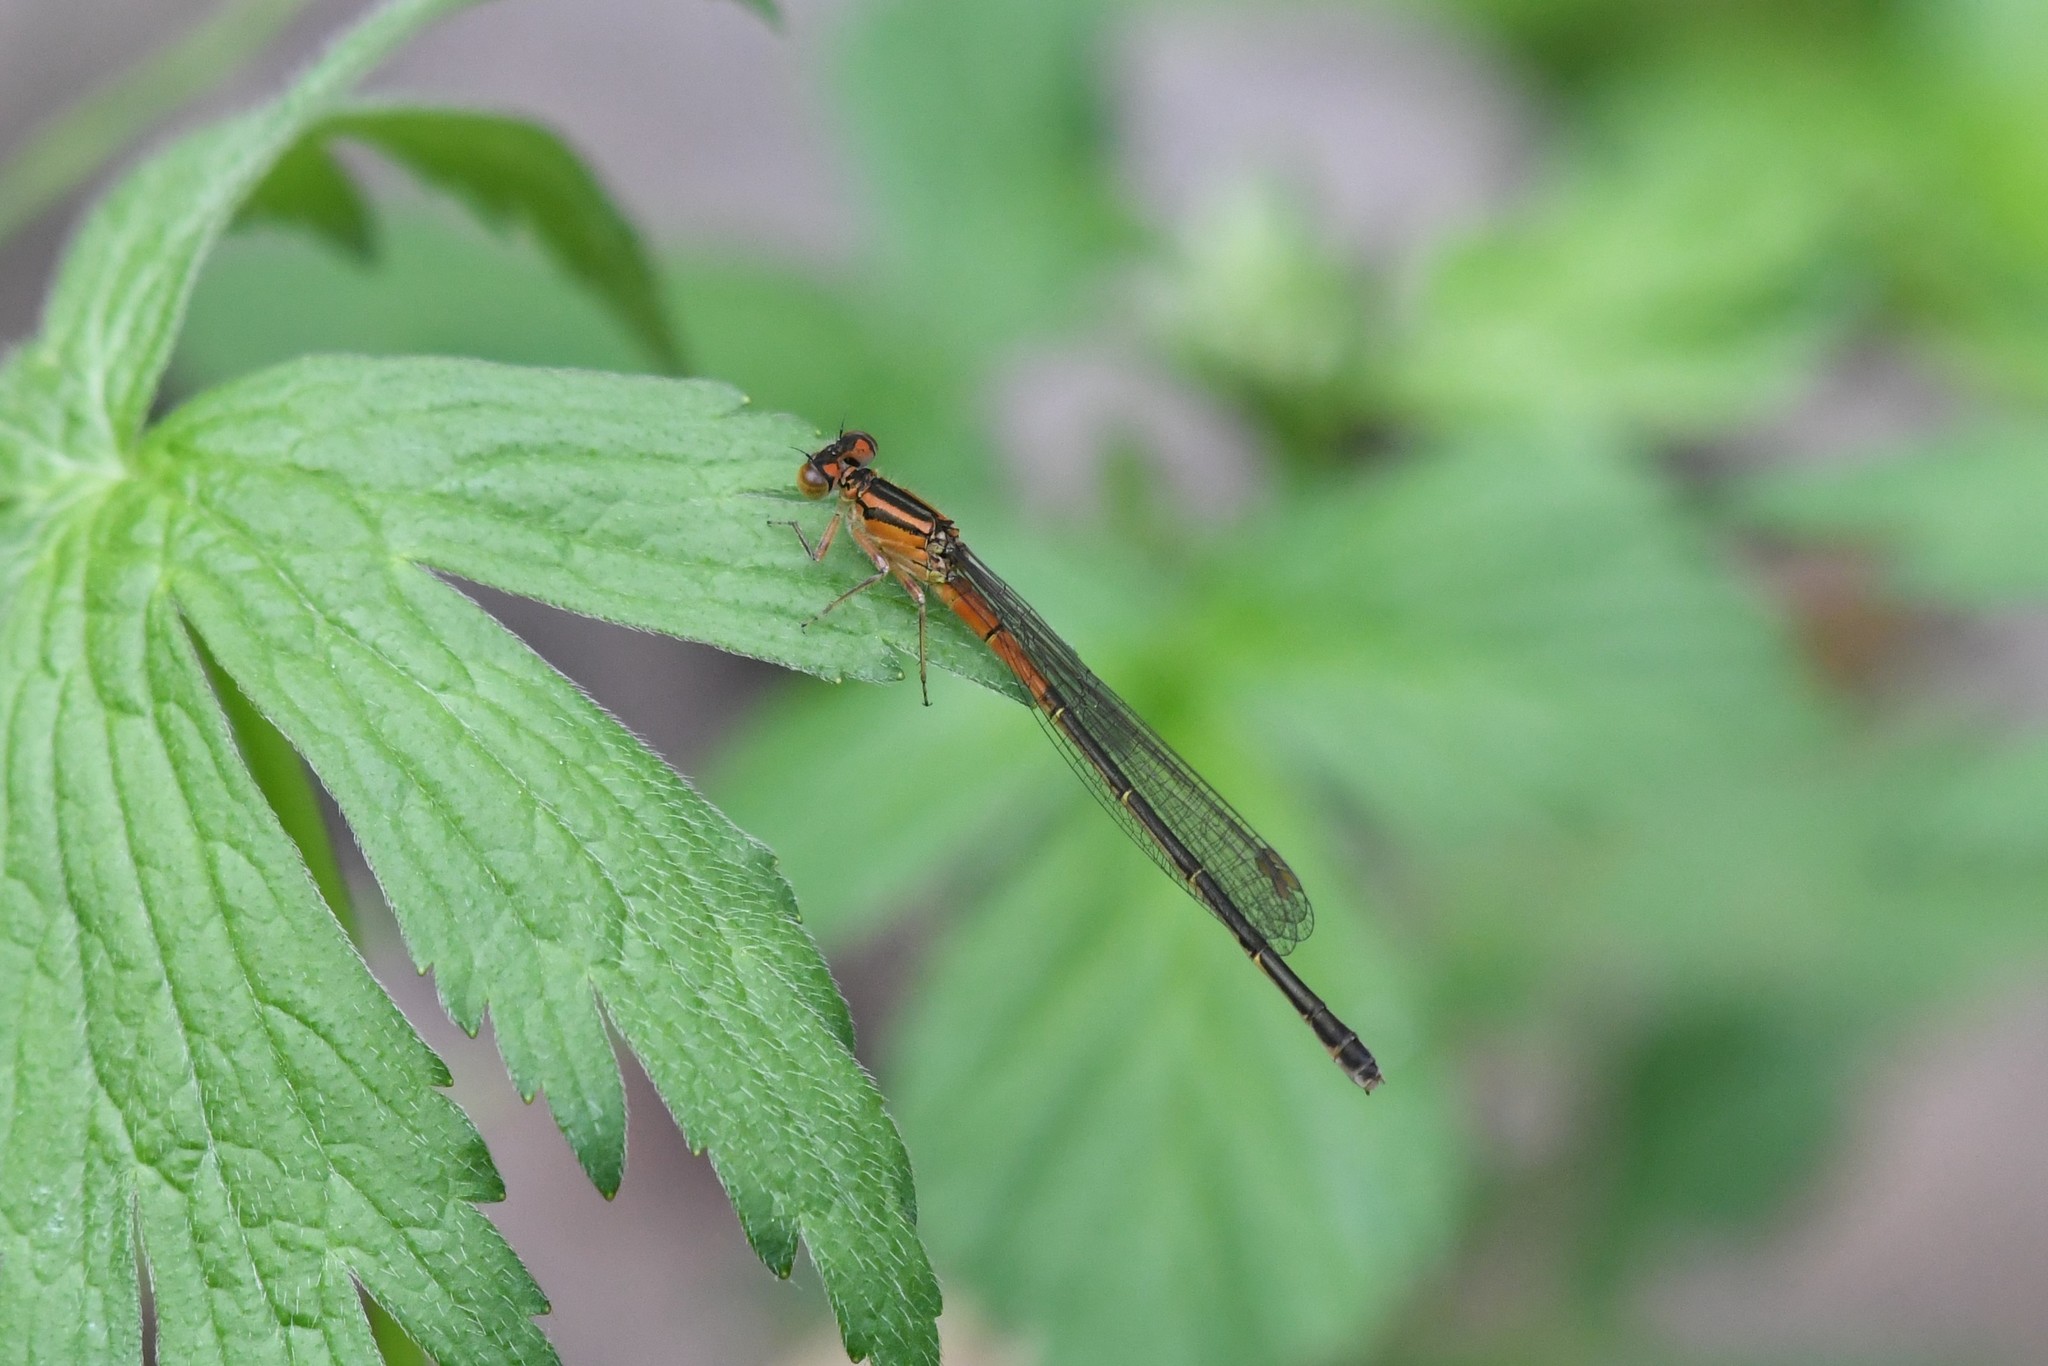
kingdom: Animalia
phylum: Arthropoda
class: Insecta
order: Odonata
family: Coenagrionidae
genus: Ischnura
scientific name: Ischnura verticalis
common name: Eastern forktail
